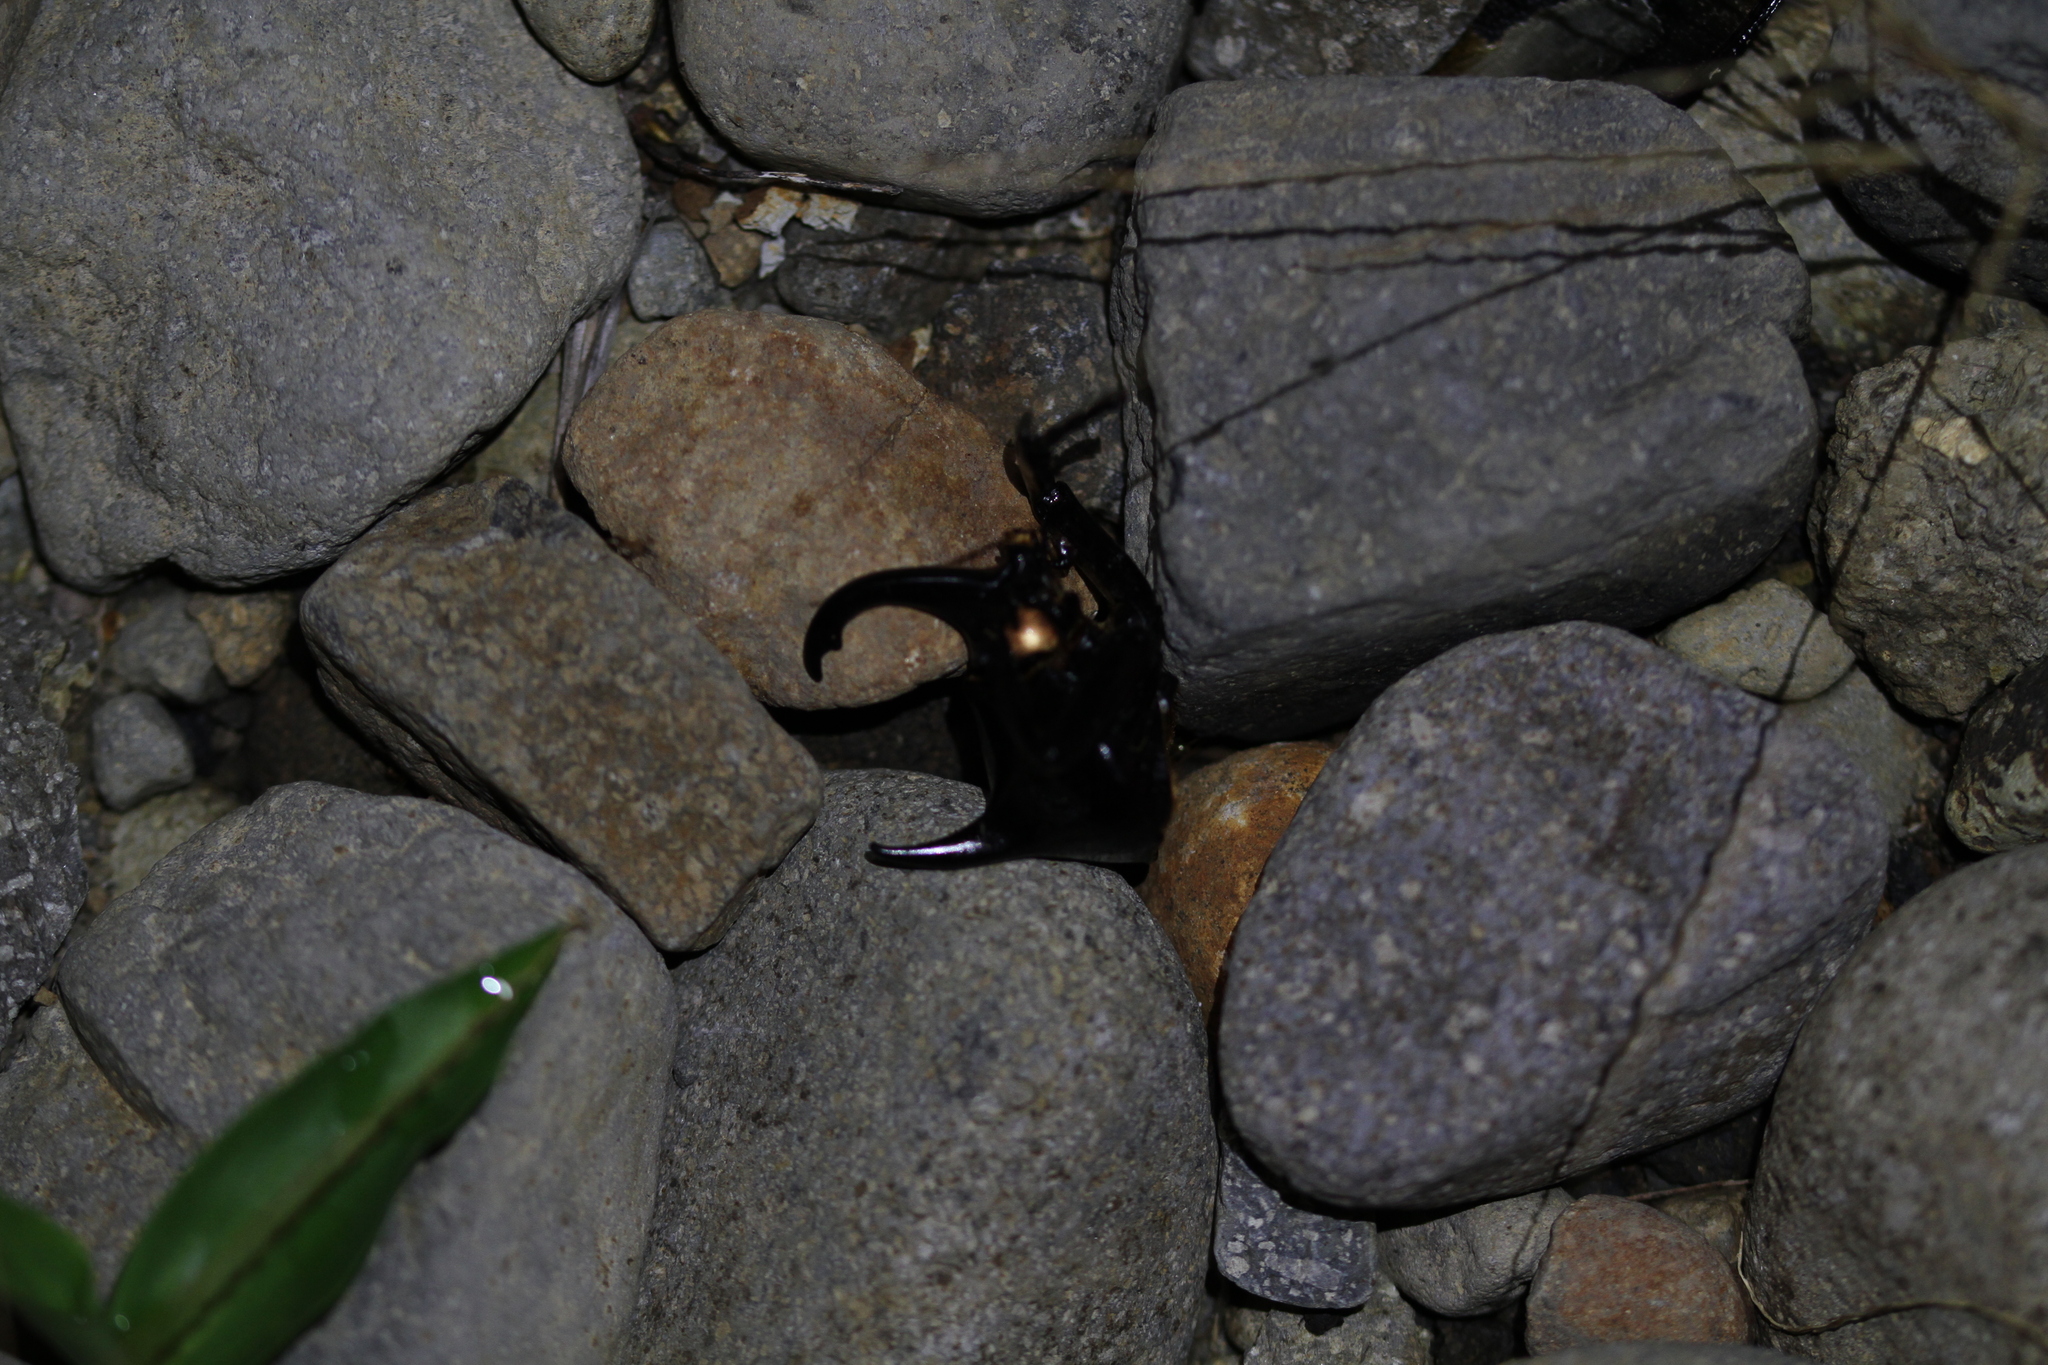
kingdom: Animalia
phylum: Arthropoda
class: Insecta
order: Coleoptera
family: Scarabaeidae
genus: Chalcosoma
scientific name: Chalcosoma atlas
